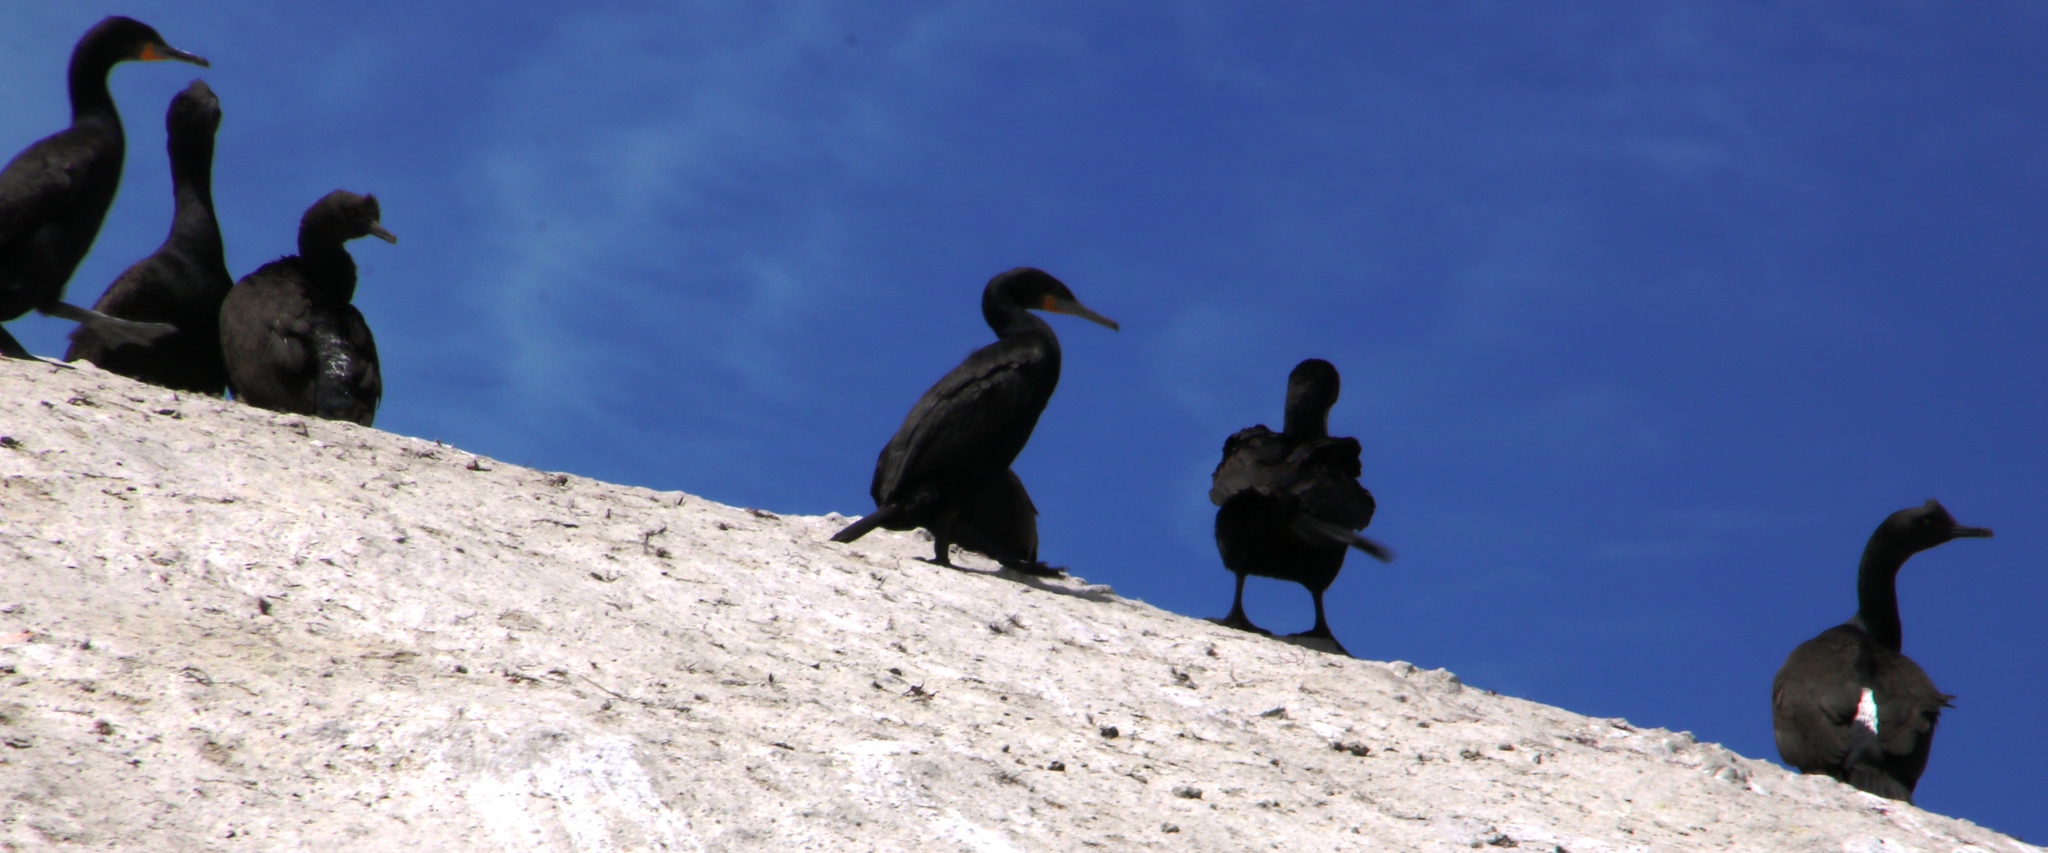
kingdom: Animalia
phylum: Chordata
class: Aves
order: Suliformes
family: Phalacrocoracidae
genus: Phalacrocorax
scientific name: Phalacrocorax neglectus
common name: Bank cormorant
